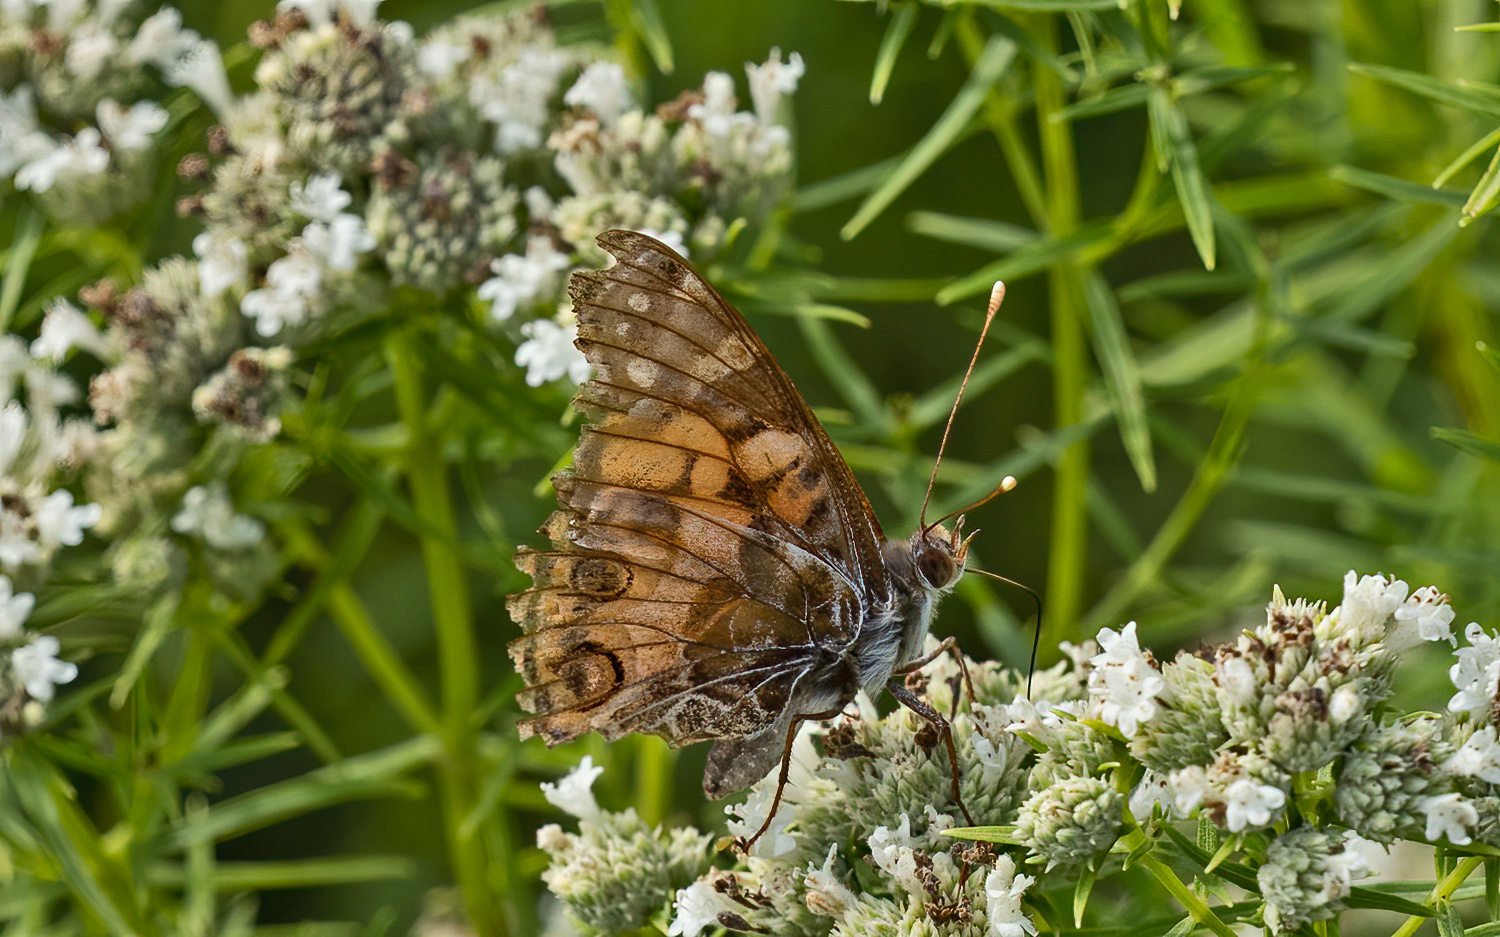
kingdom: Animalia
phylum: Arthropoda
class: Insecta
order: Lepidoptera
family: Nymphalidae
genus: Vanessa
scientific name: Vanessa virginiensis
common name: American lady
